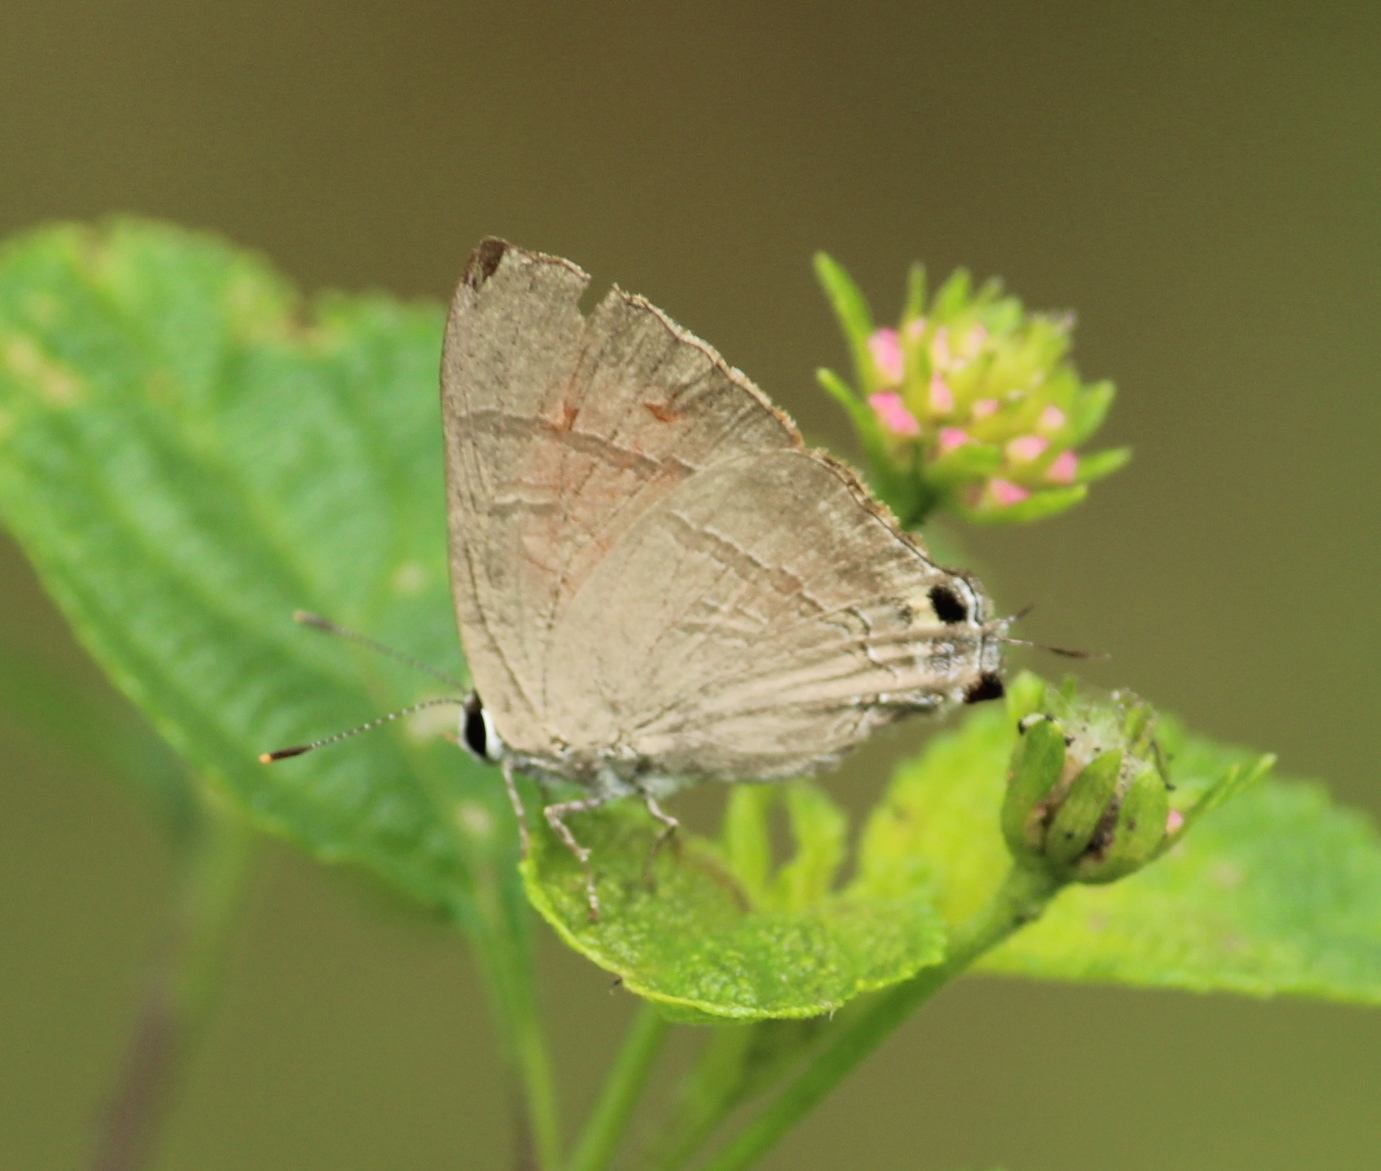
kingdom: Animalia
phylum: Arthropoda
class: Insecta
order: Lepidoptera
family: Lycaenidae
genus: Rapala
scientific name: Rapala iarbus
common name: Common red flash
